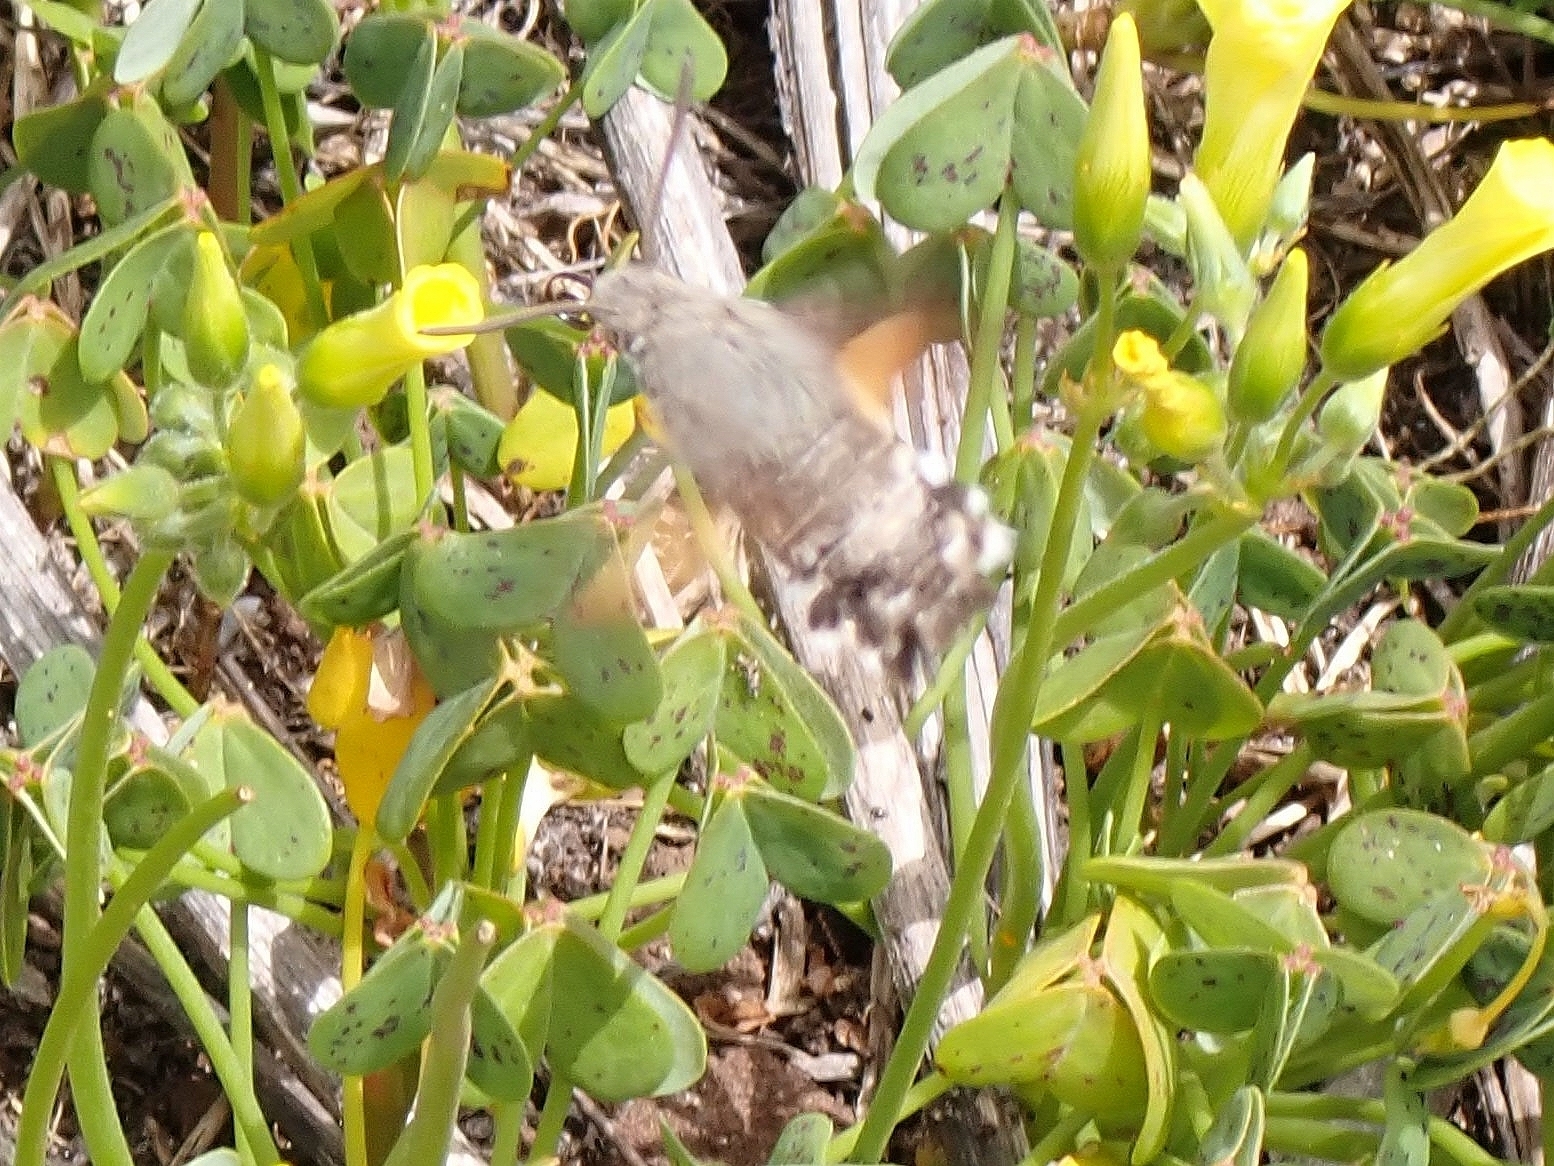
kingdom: Animalia
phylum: Arthropoda
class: Insecta
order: Lepidoptera
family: Sphingidae
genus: Macroglossum
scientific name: Macroglossum stellatarum
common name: Humming-bird hawk-moth
